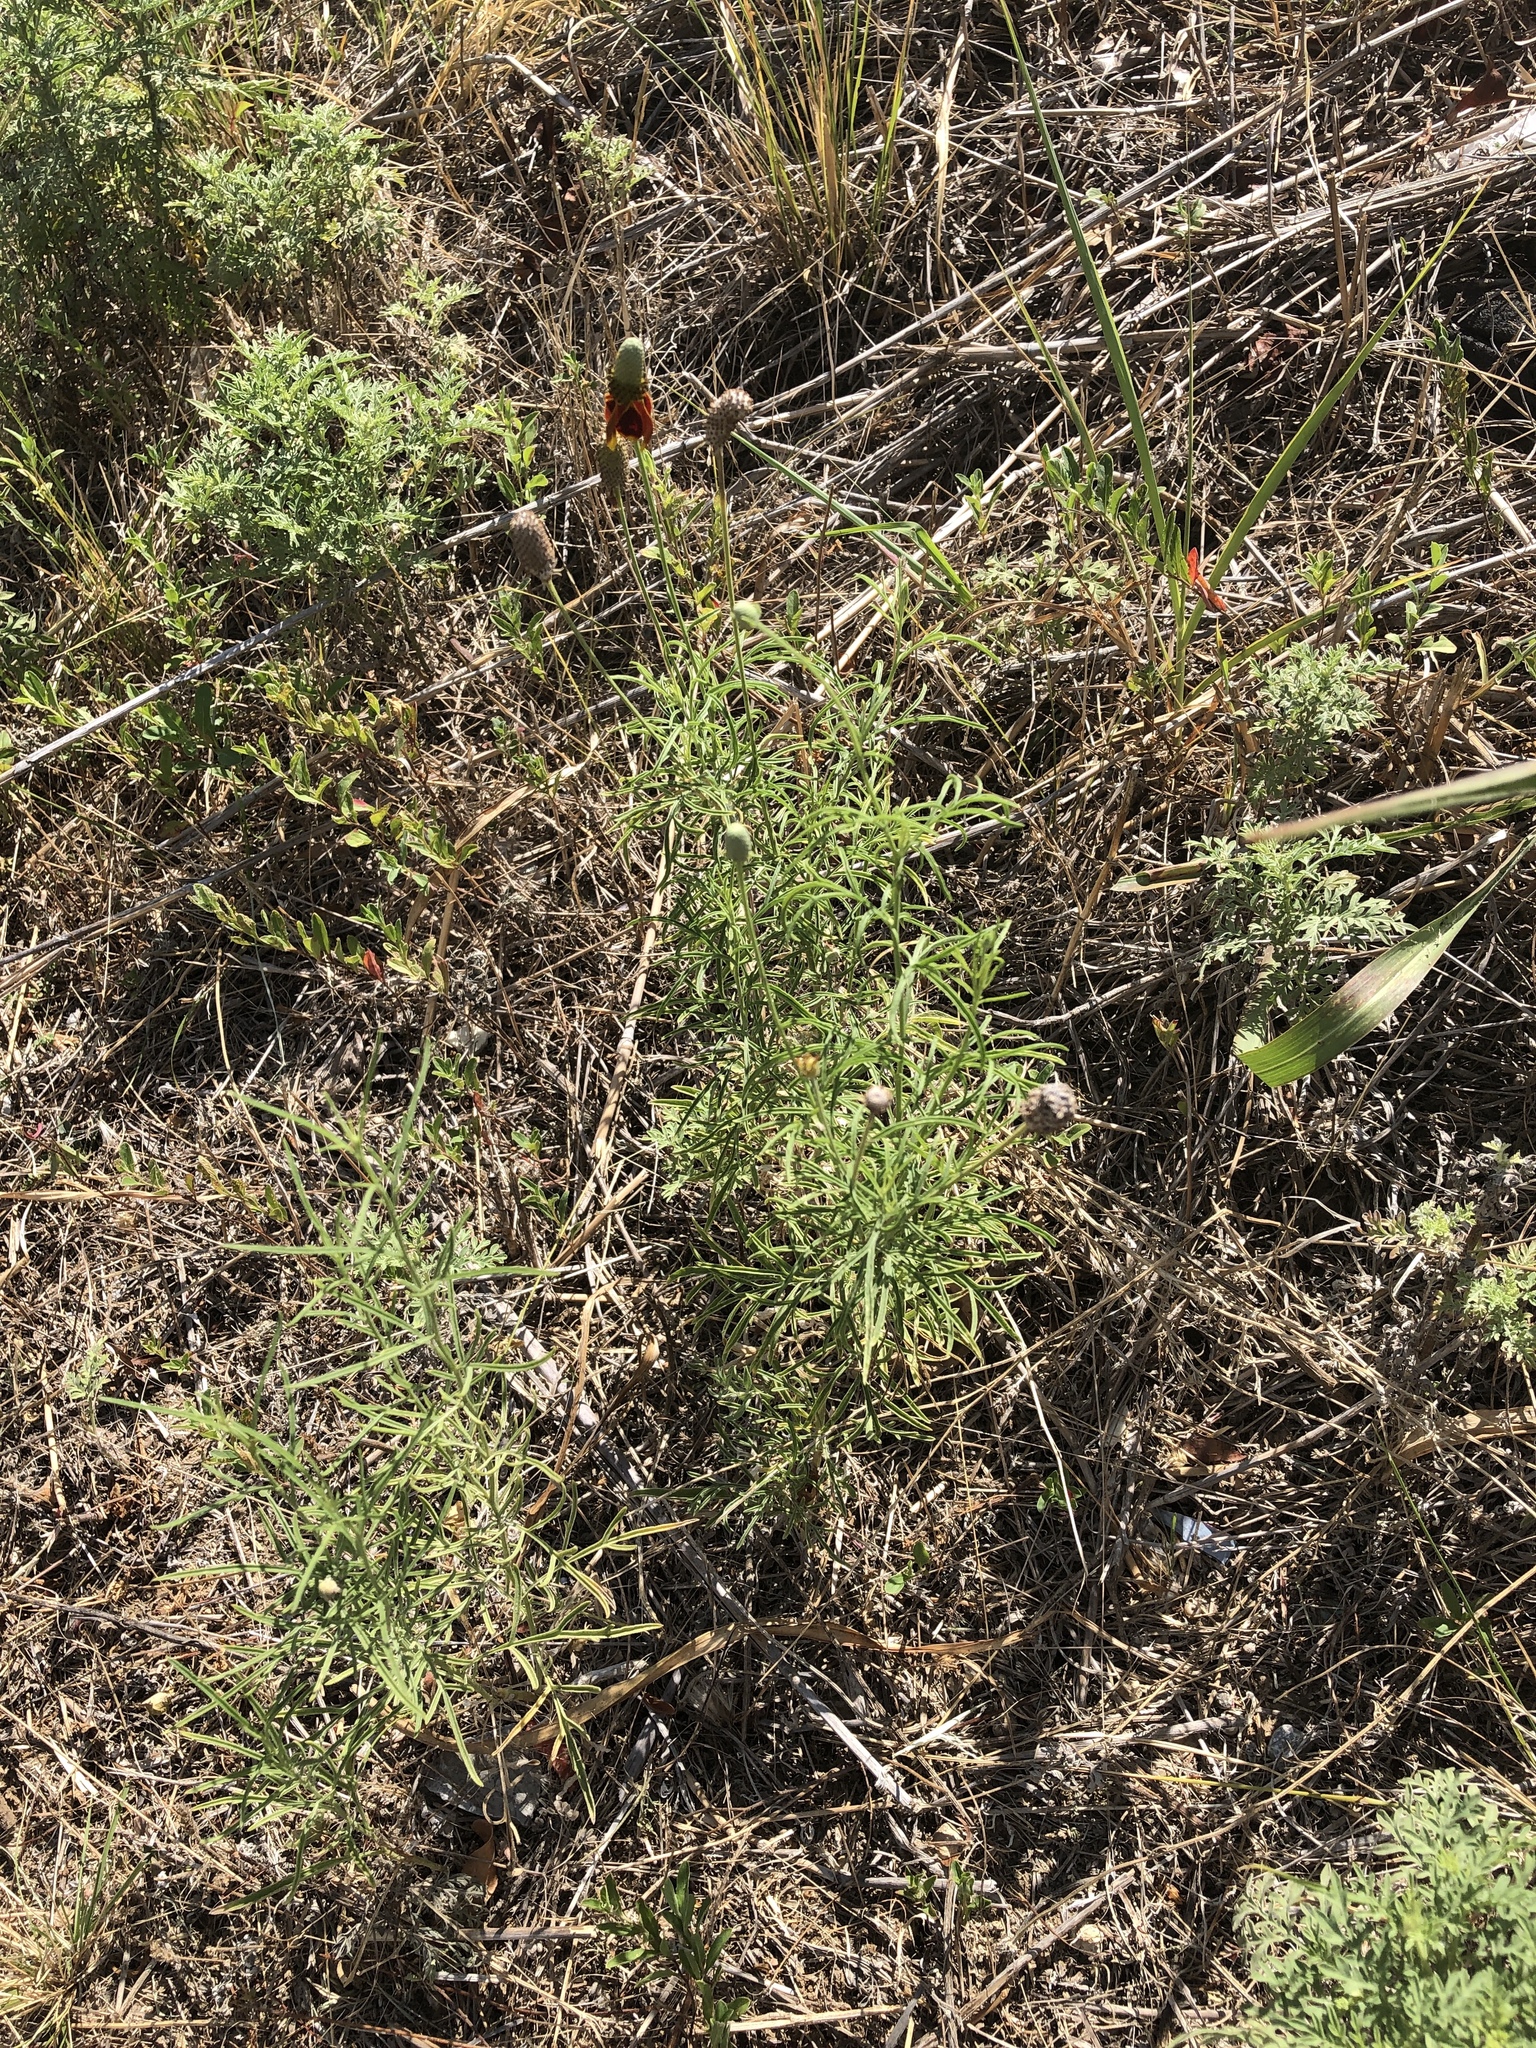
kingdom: Plantae
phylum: Tracheophyta
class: Magnoliopsida
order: Asterales
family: Asteraceae
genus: Ratibida
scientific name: Ratibida columnifera
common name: Prairie coneflower
